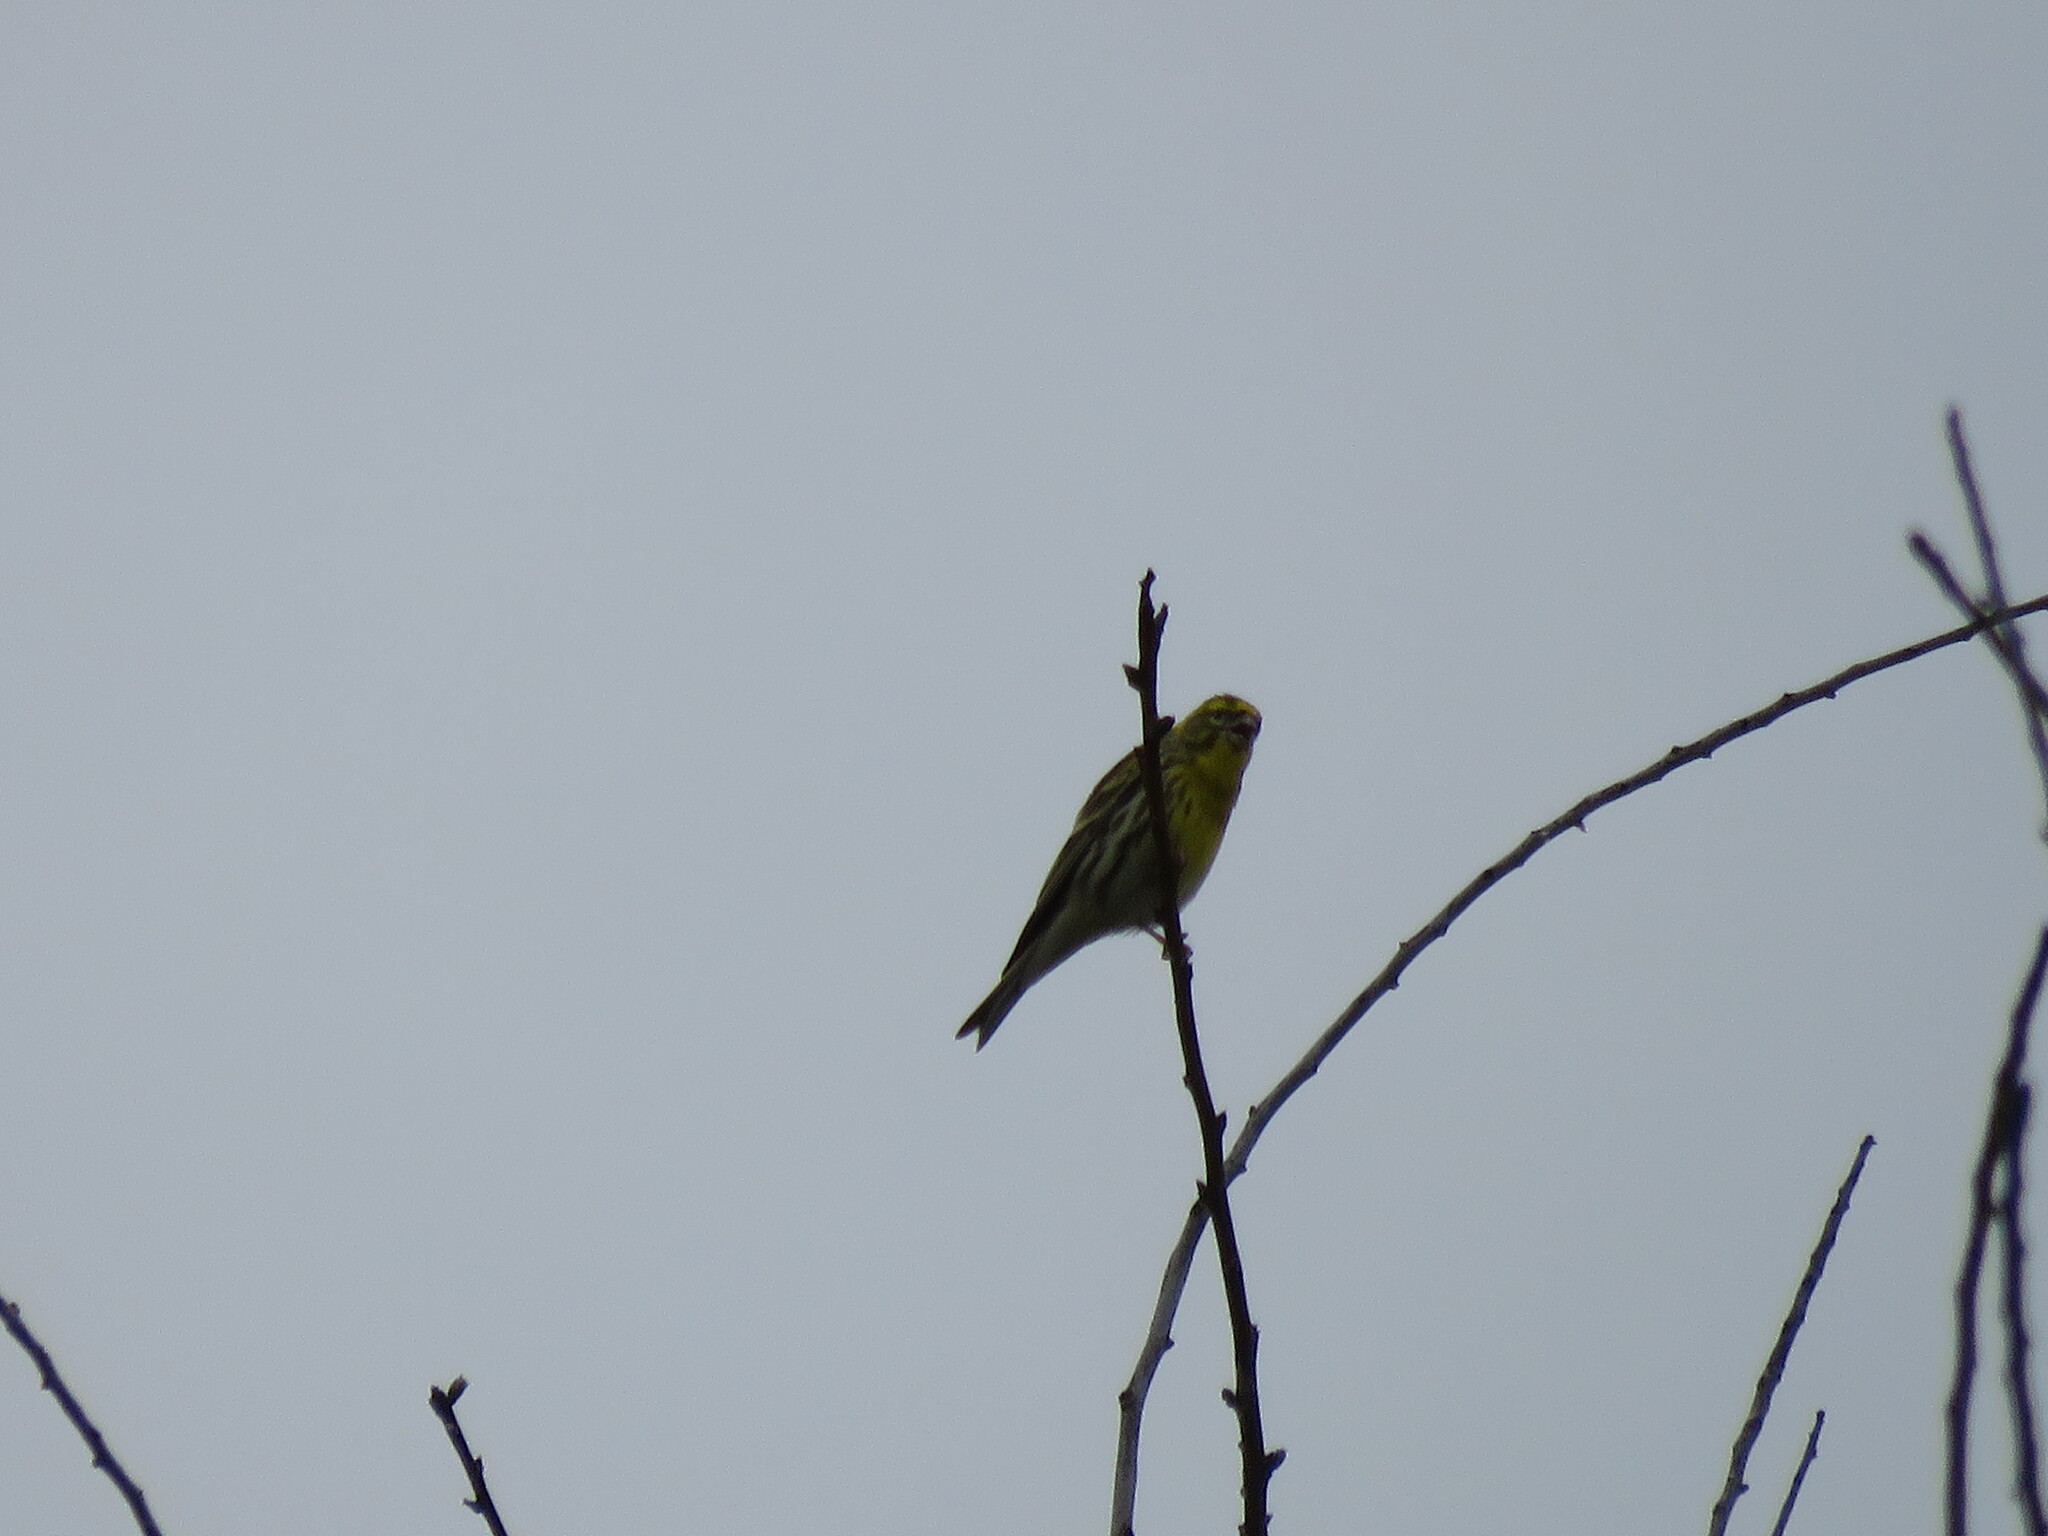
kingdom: Animalia
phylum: Chordata
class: Aves
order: Passeriformes
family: Fringillidae
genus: Serinus
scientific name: Serinus serinus
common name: European serin
